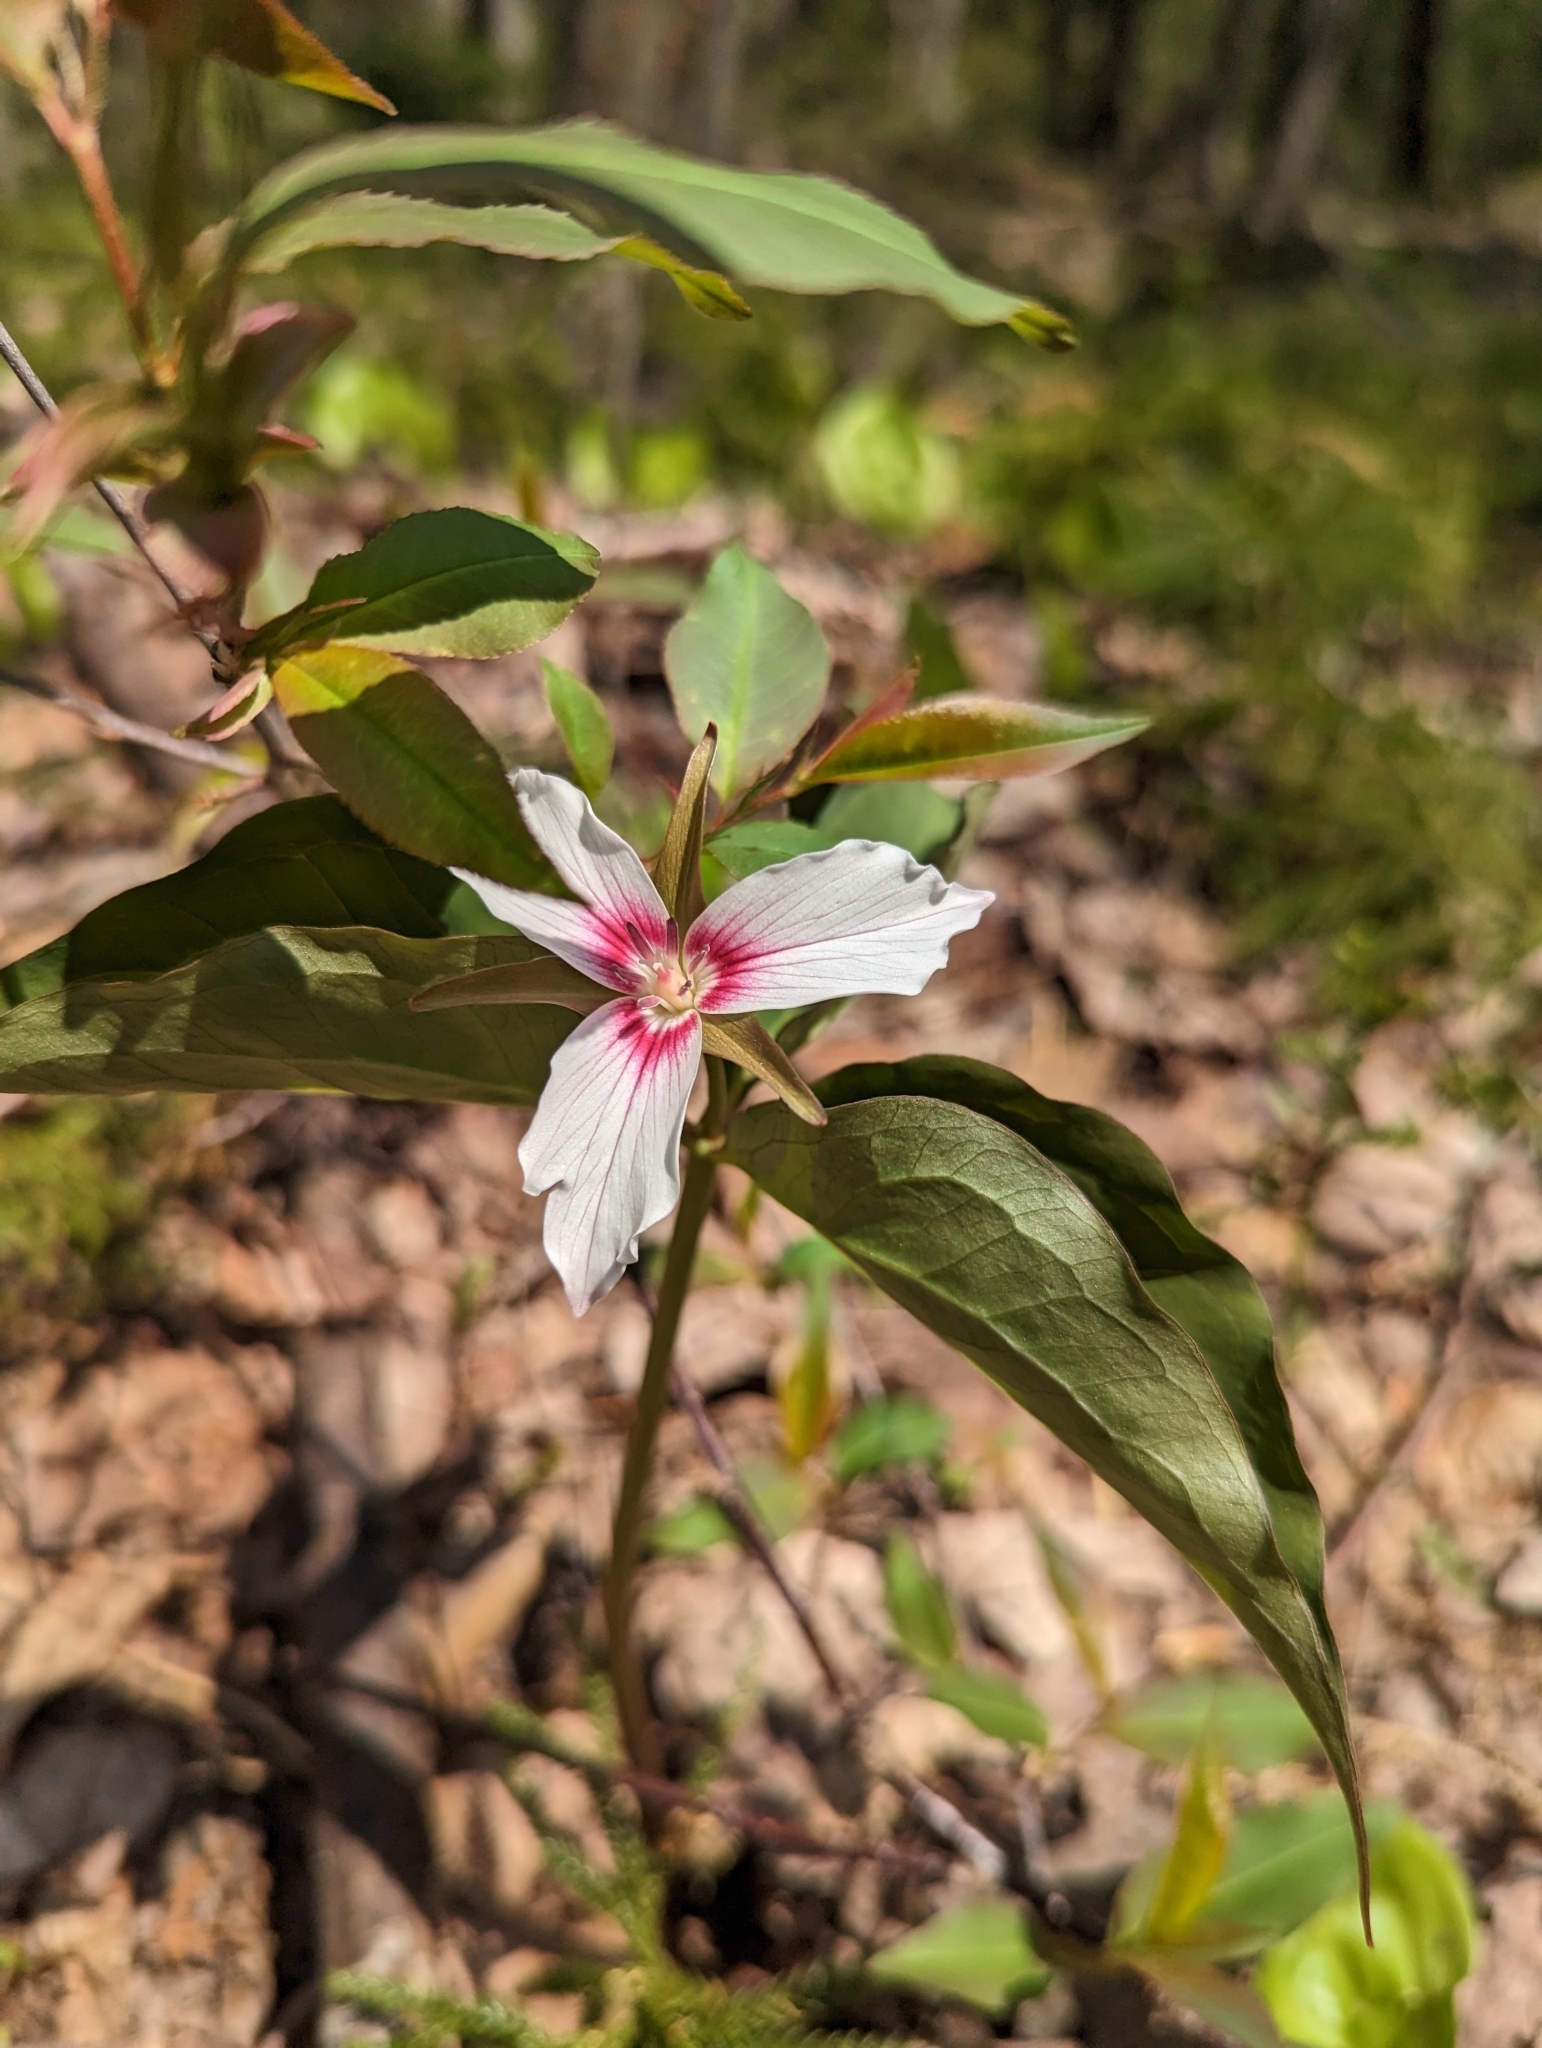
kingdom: Plantae
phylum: Tracheophyta
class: Liliopsida
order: Liliales
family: Melanthiaceae
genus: Trillium
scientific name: Trillium undulatum
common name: Paint trillium
